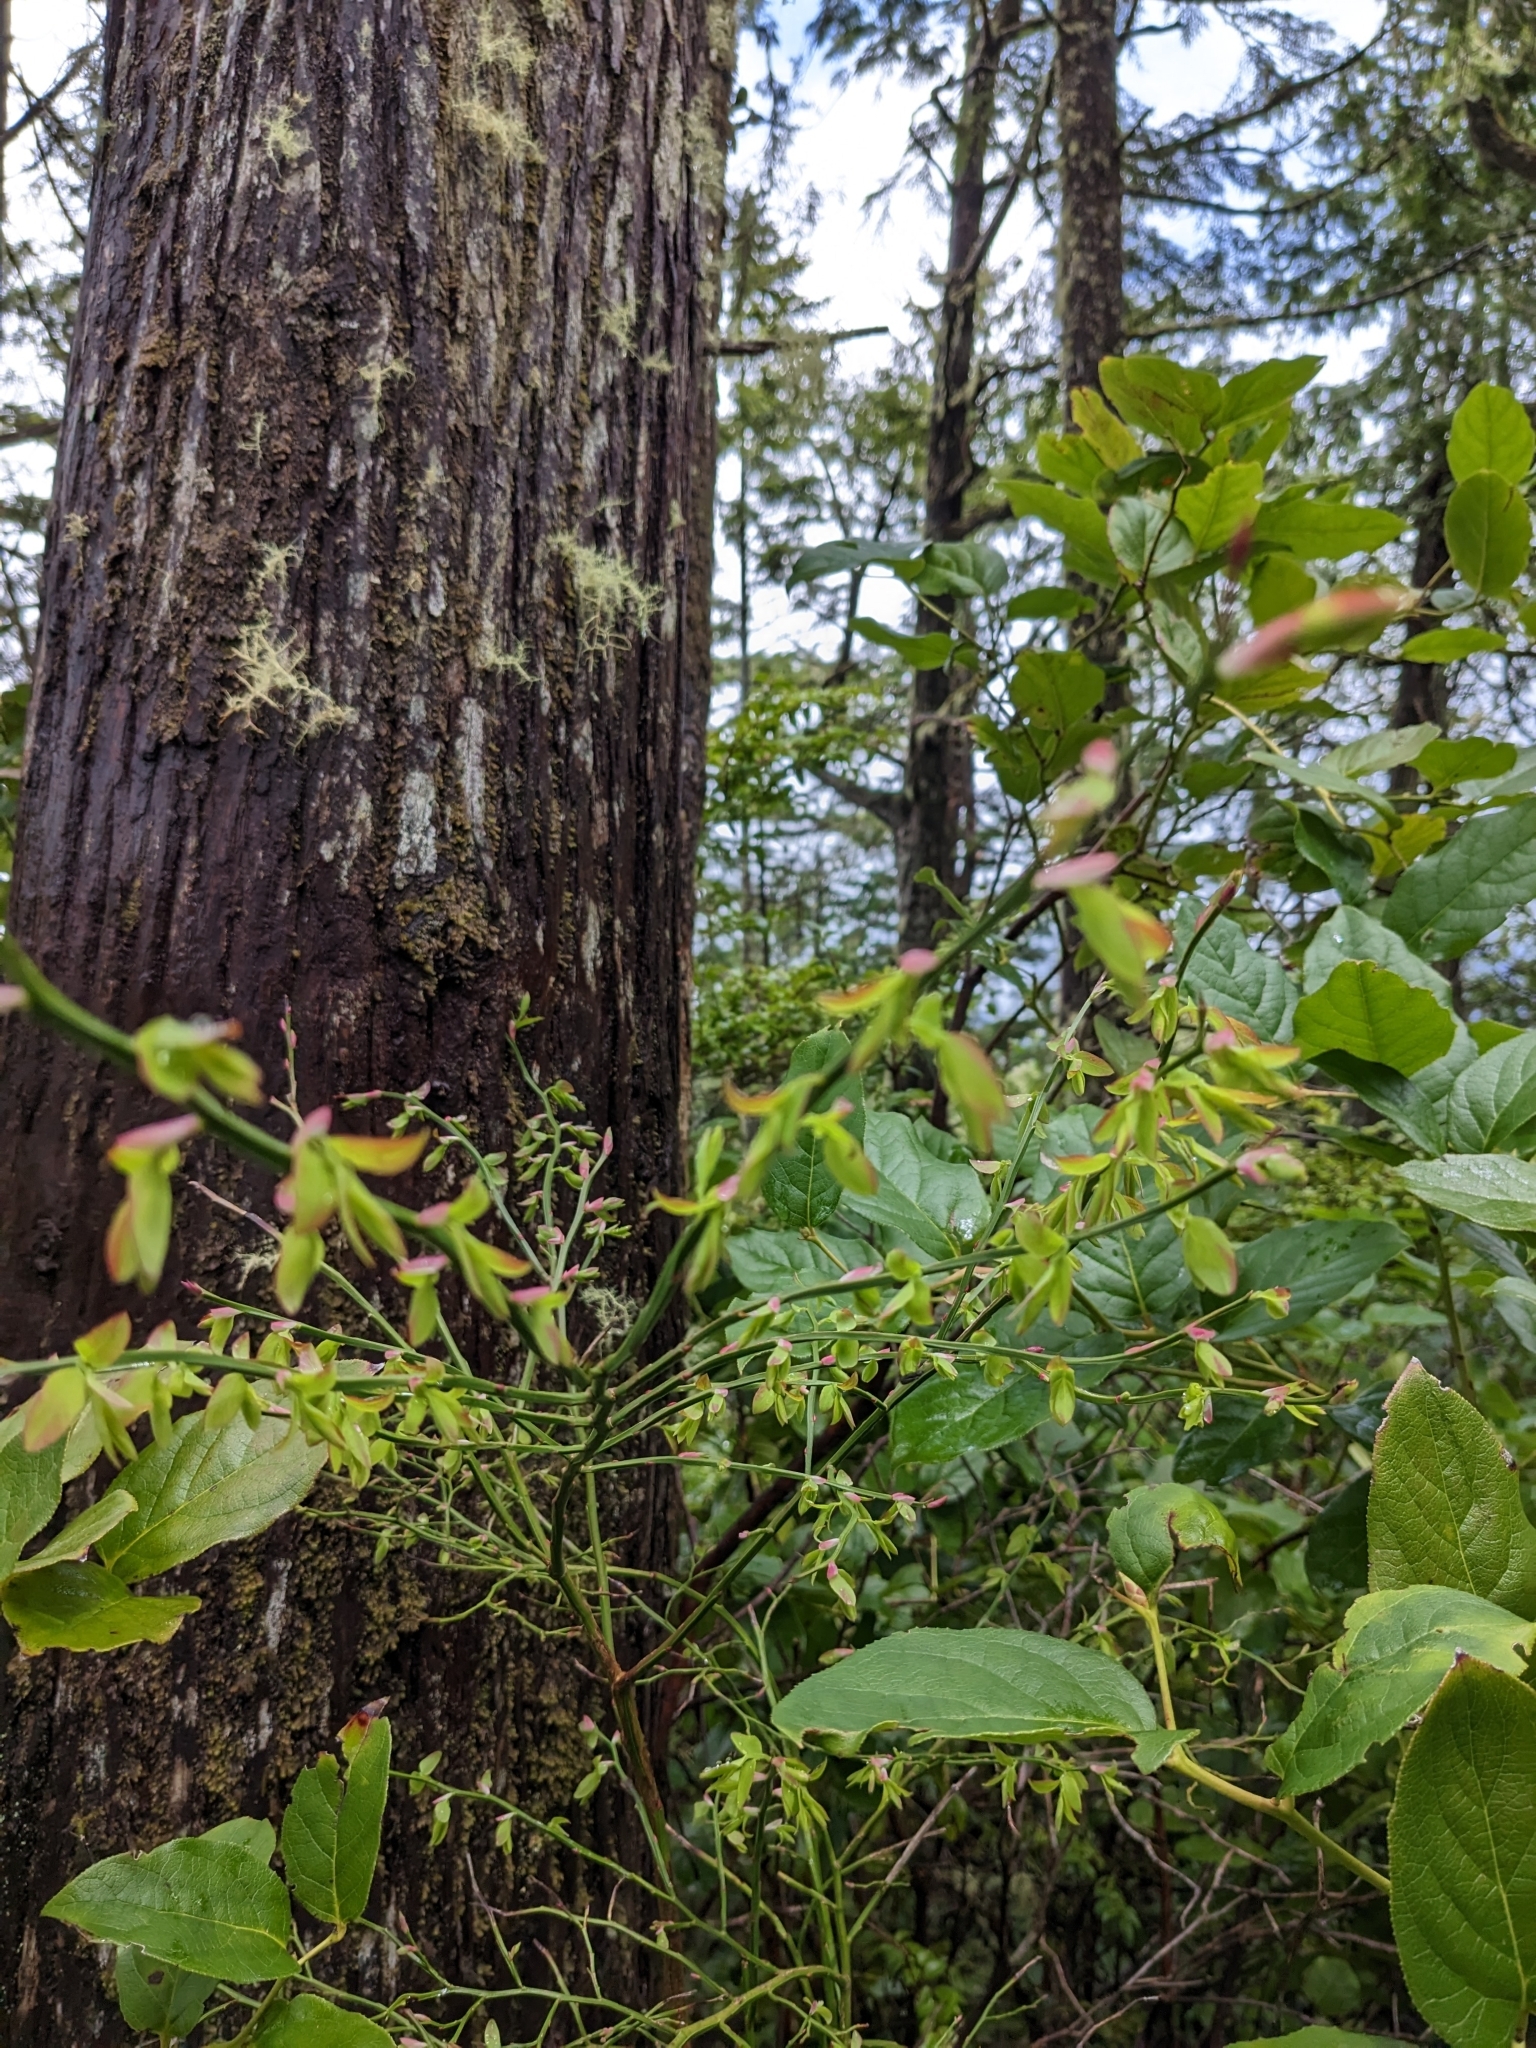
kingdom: Plantae
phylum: Tracheophyta
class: Magnoliopsida
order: Ericales
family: Ericaceae
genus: Vaccinium
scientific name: Vaccinium parvifolium
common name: Red-huckleberry
